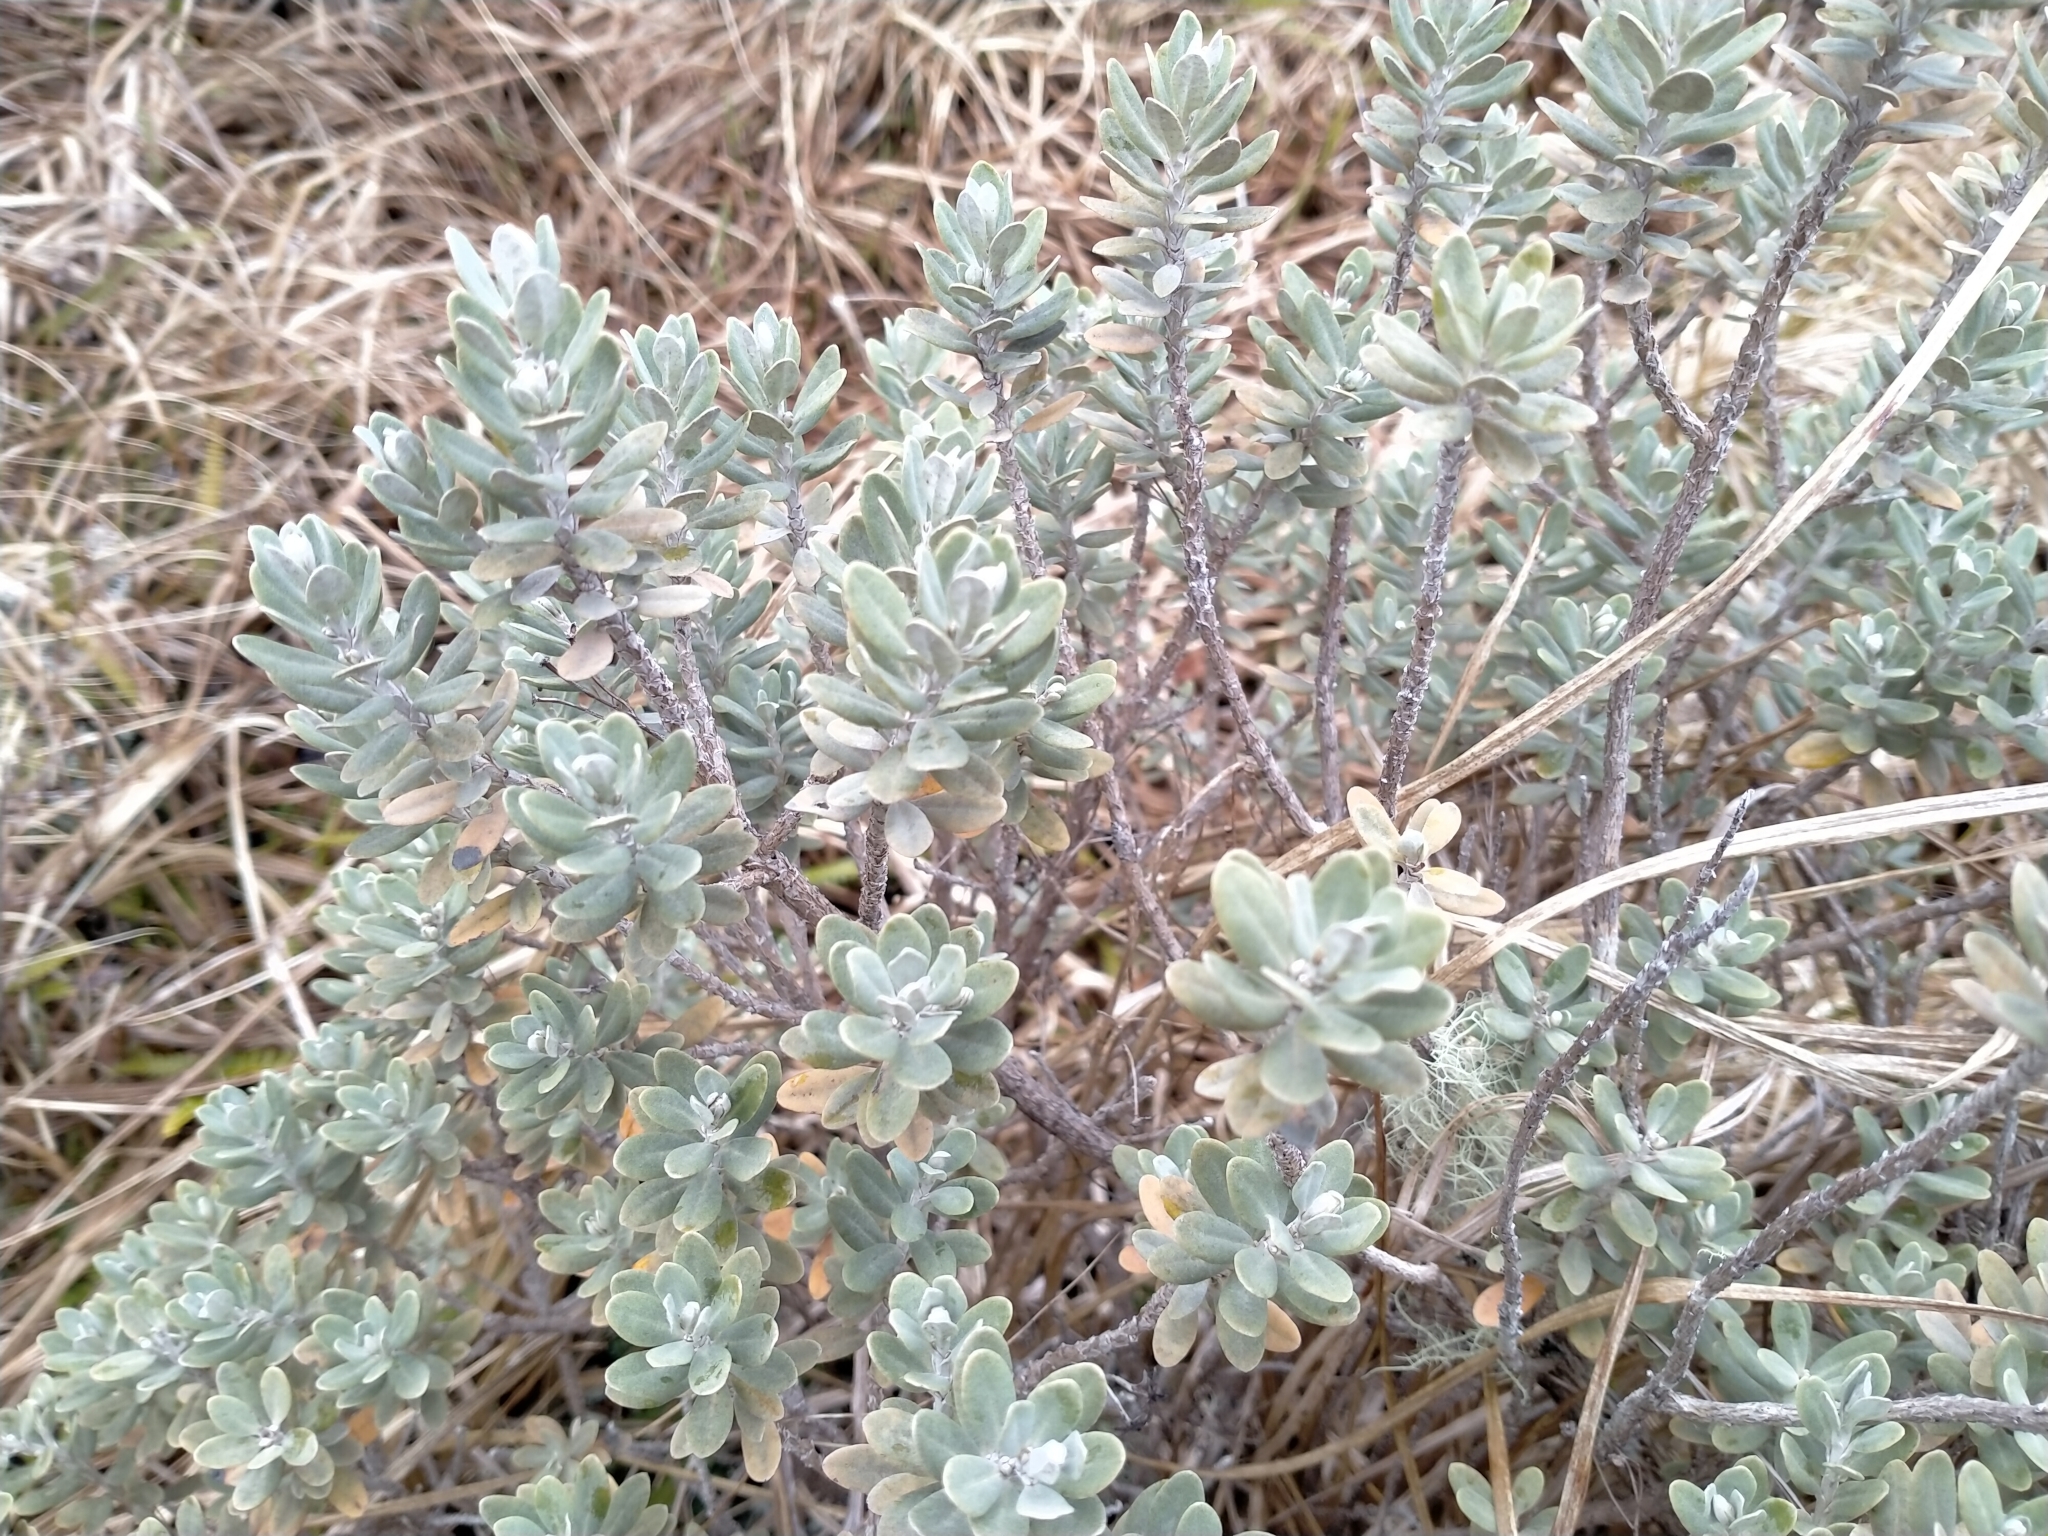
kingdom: Plantae
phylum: Tracheophyta
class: Magnoliopsida
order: Asterales
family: Asteraceae
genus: Olearia
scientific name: Olearia moschata
